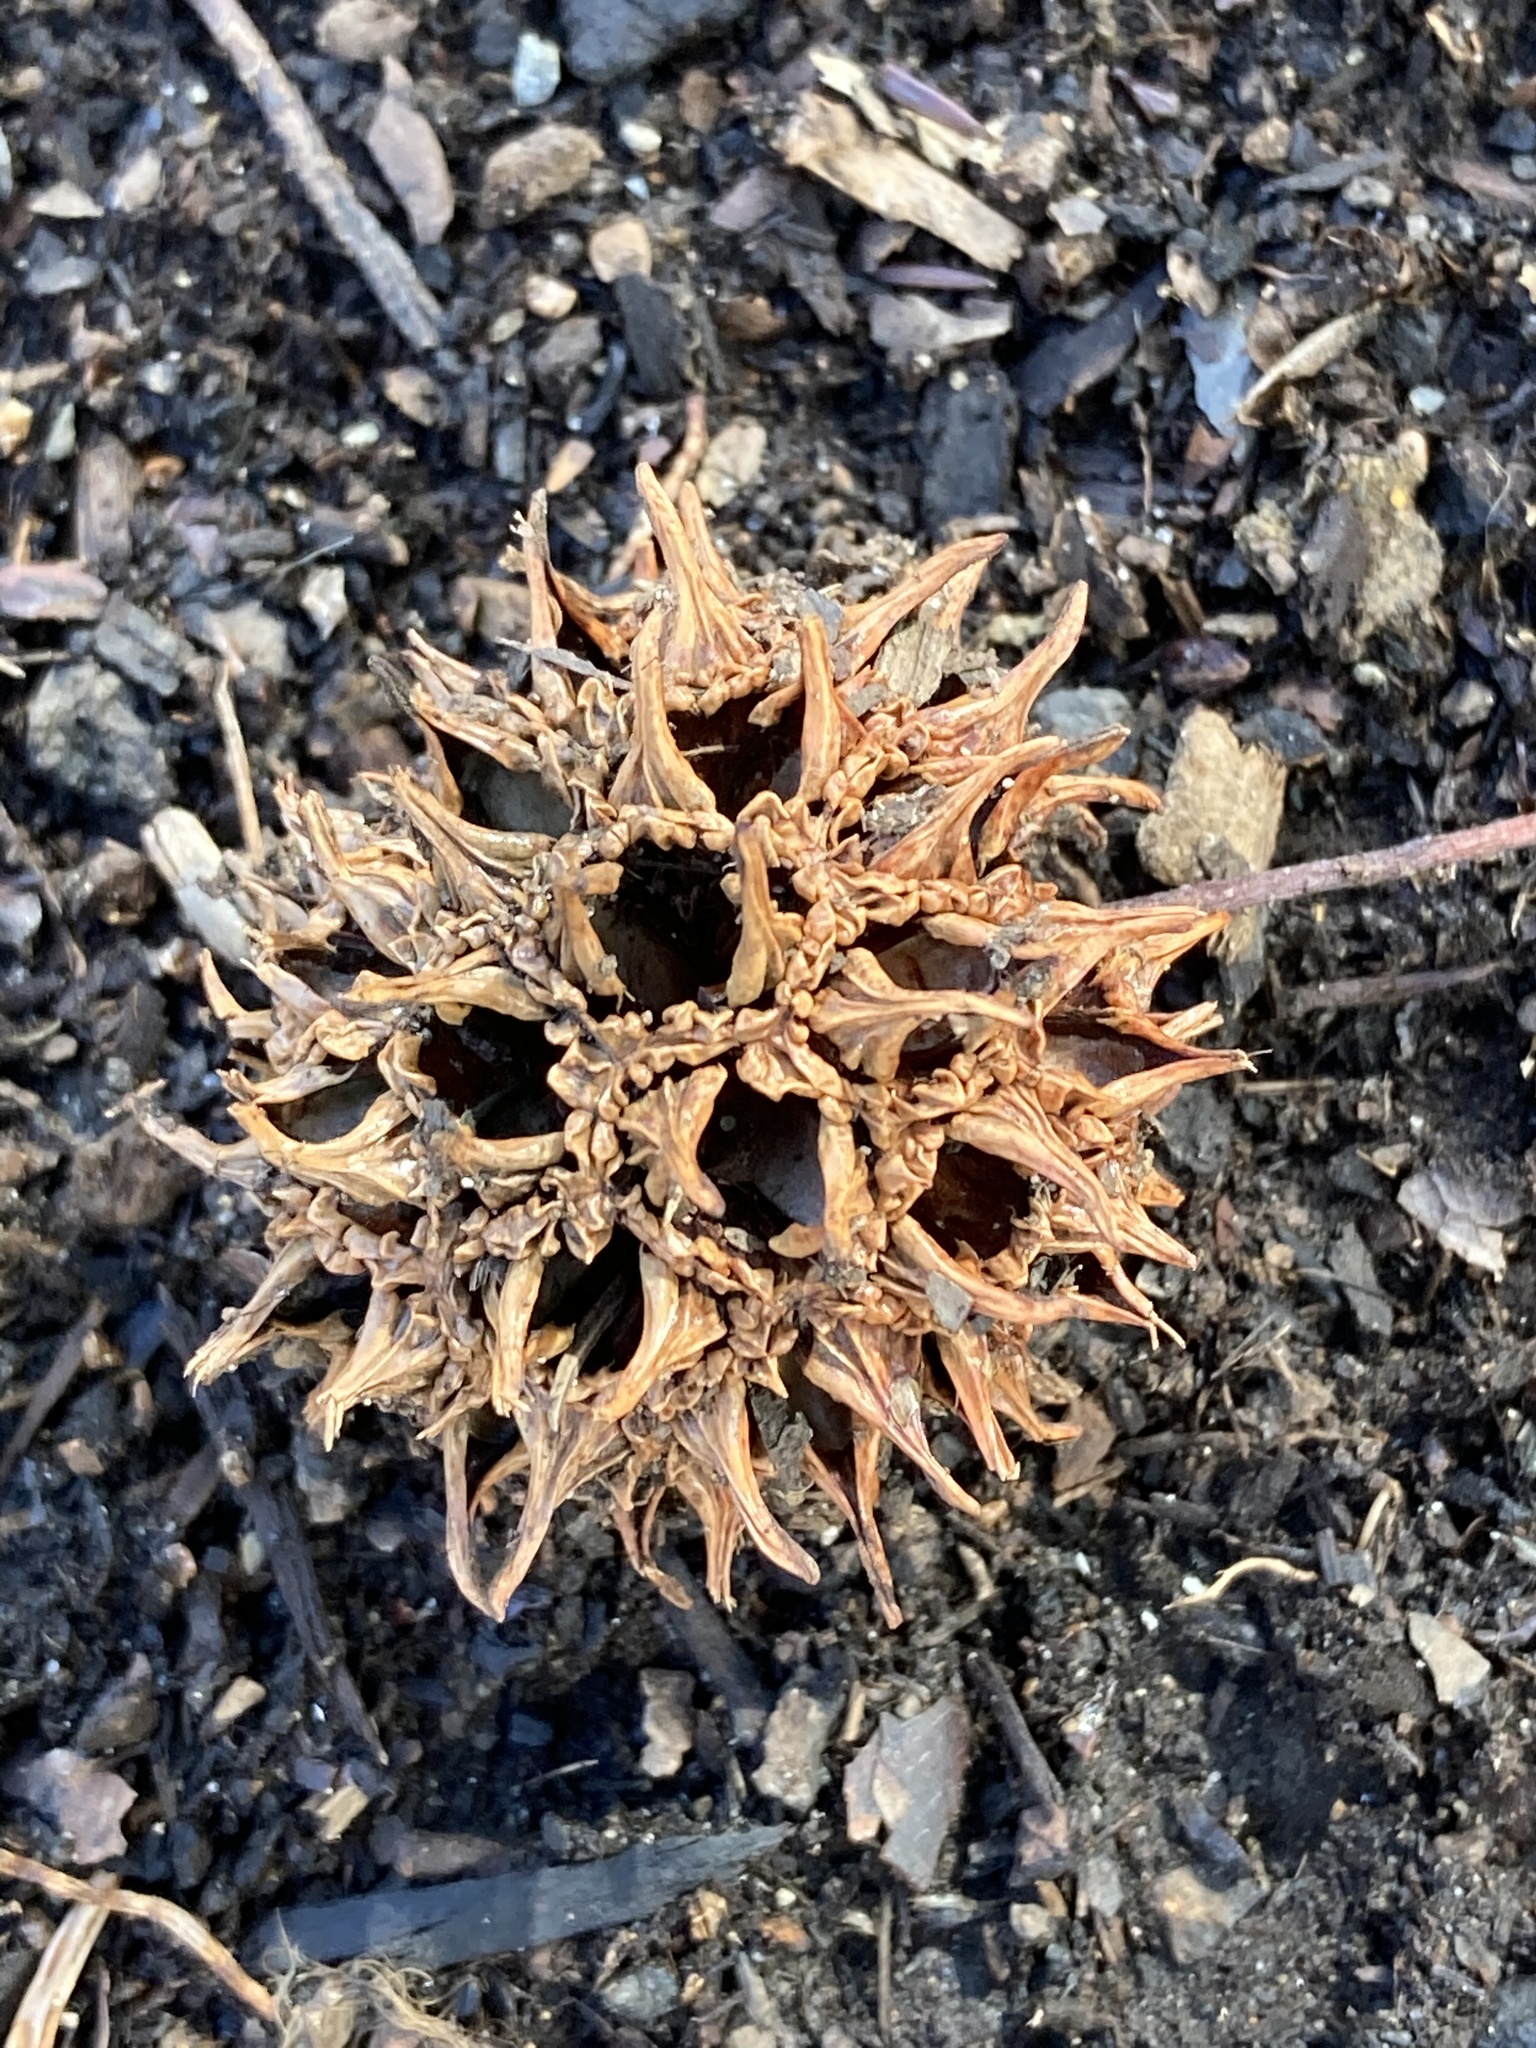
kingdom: Plantae
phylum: Tracheophyta
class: Magnoliopsida
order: Saxifragales
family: Altingiaceae
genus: Liquidambar
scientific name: Liquidambar styraciflua
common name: Sweet gum
